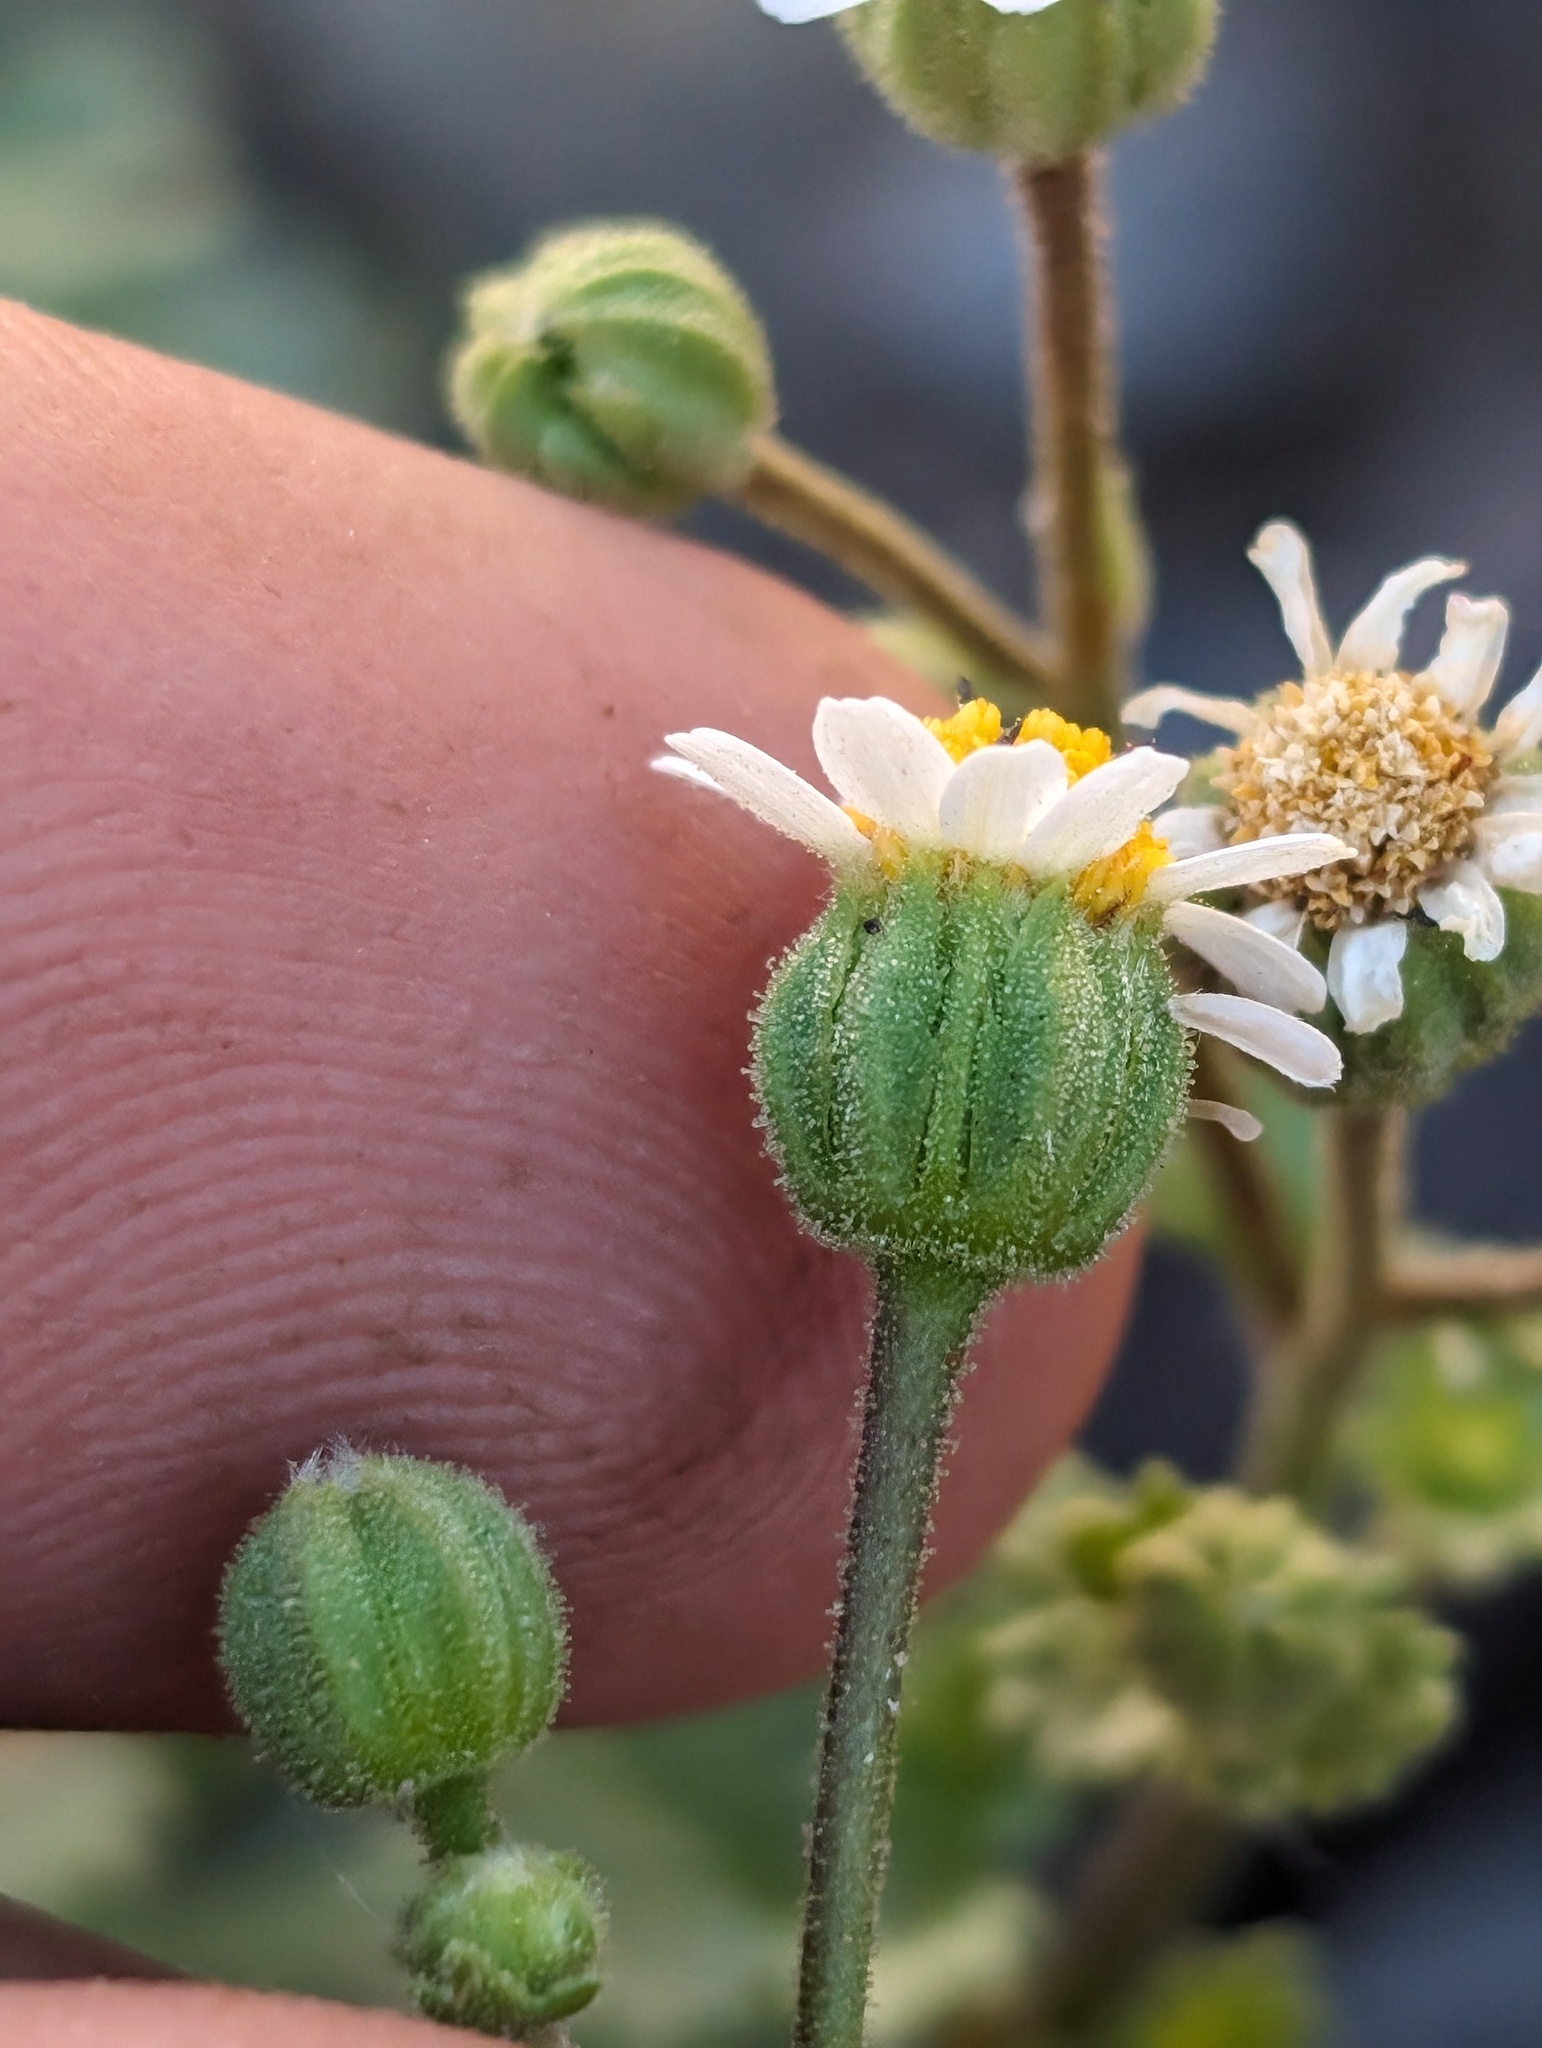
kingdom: Plantae
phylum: Tracheophyta
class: Magnoliopsida
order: Asterales
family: Asteraceae
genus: Laphamia
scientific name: Laphamia emoryi
